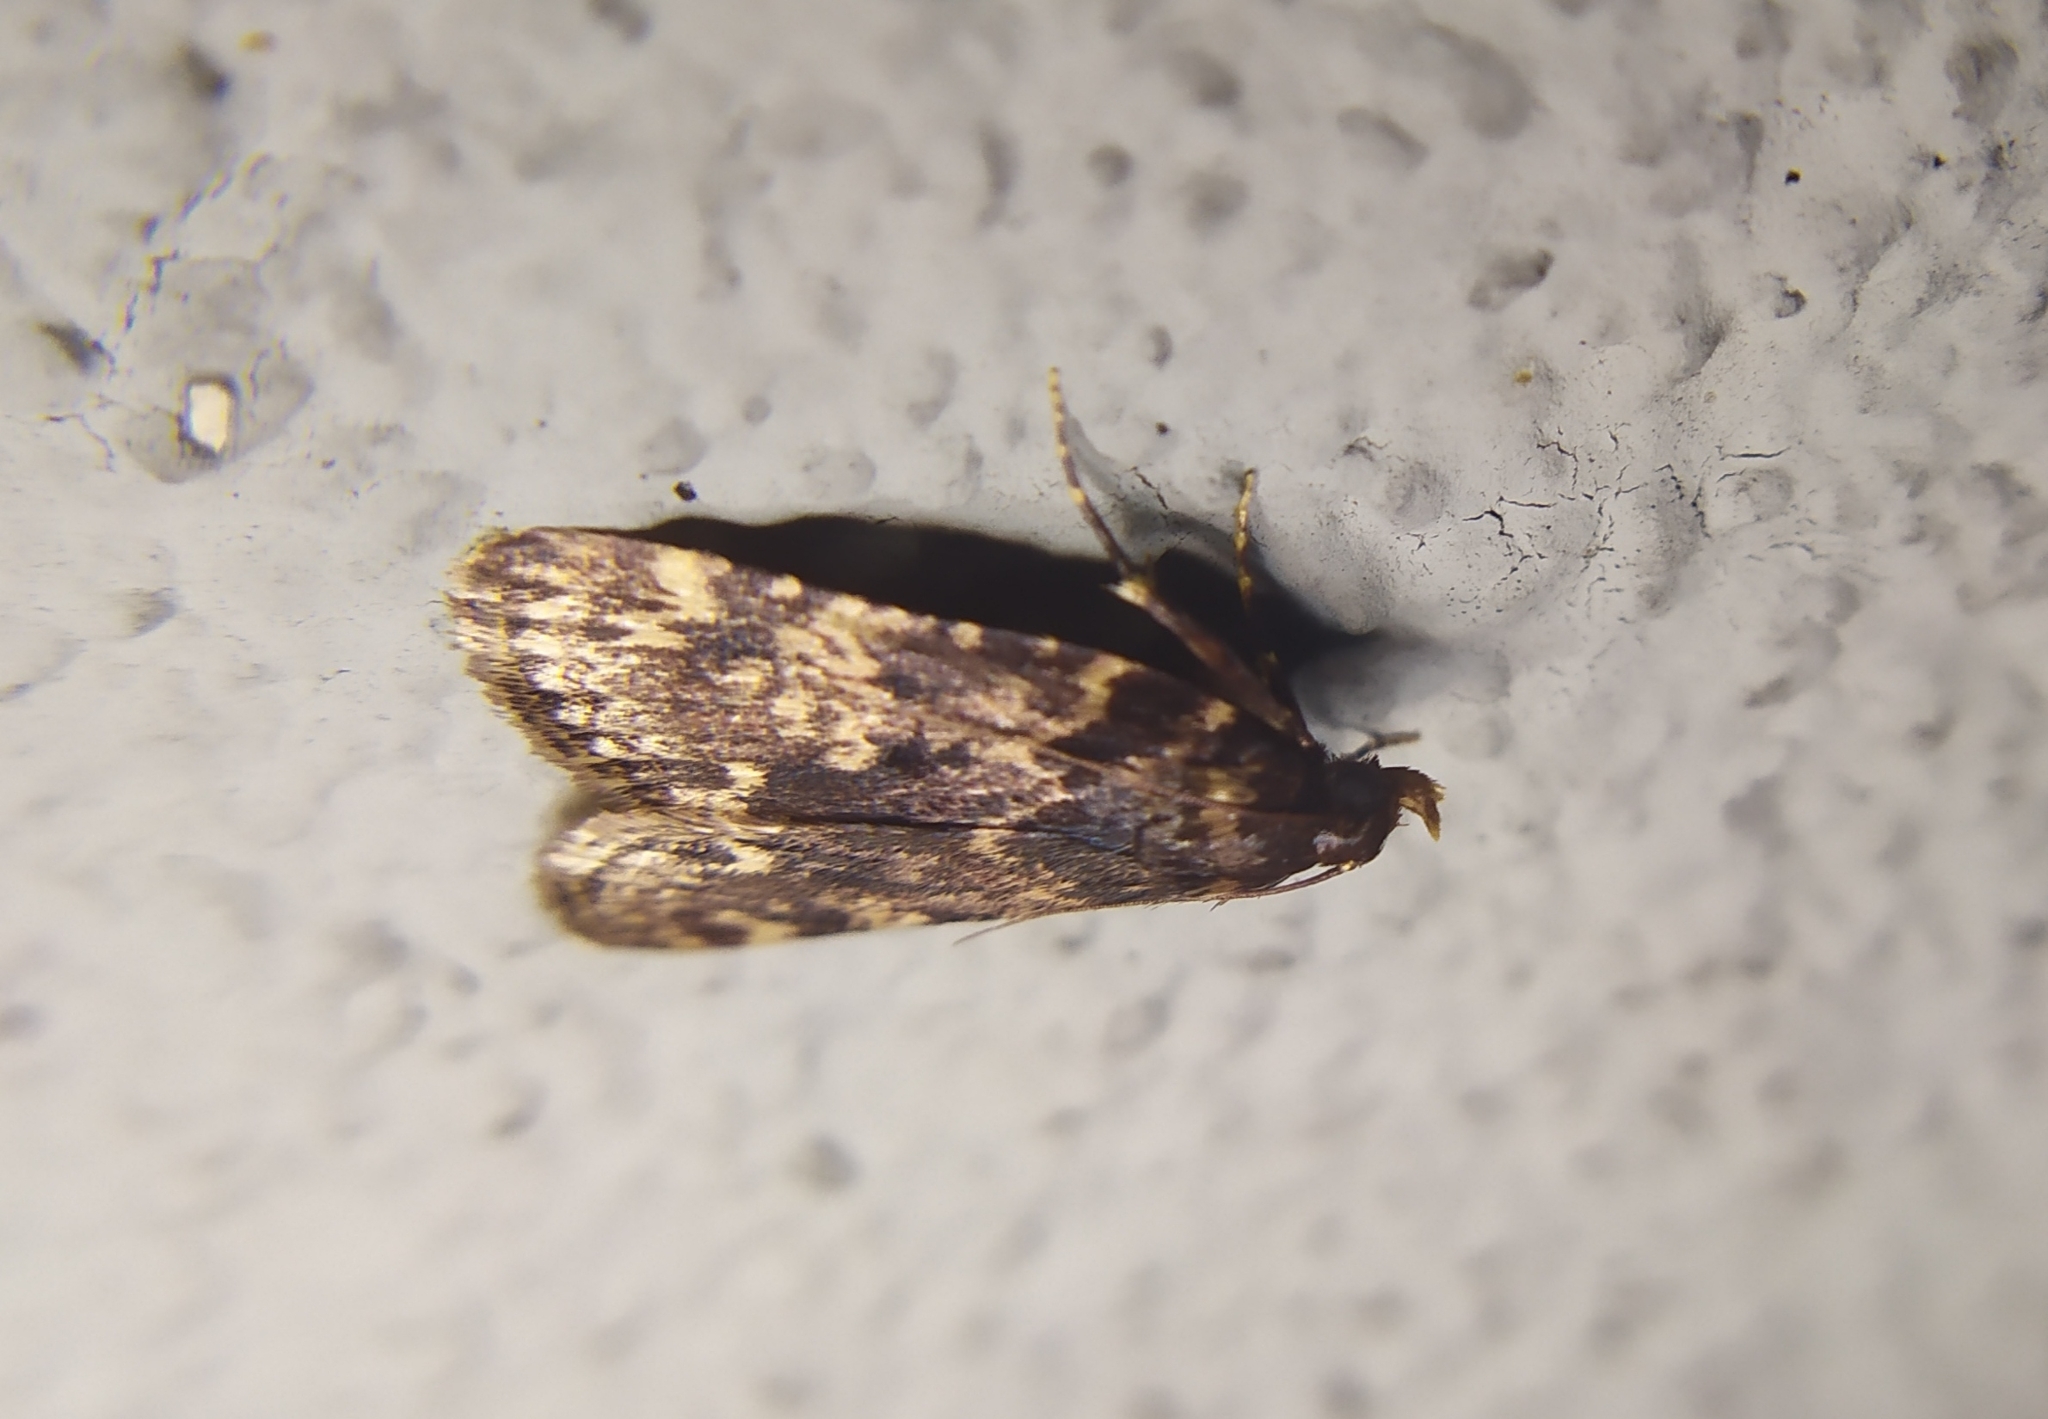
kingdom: Animalia
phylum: Arthropoda
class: Insecta
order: Lepidoptera
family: Pyralidae
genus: Aglossa
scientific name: Aglossa caprealis
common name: Small tabby
